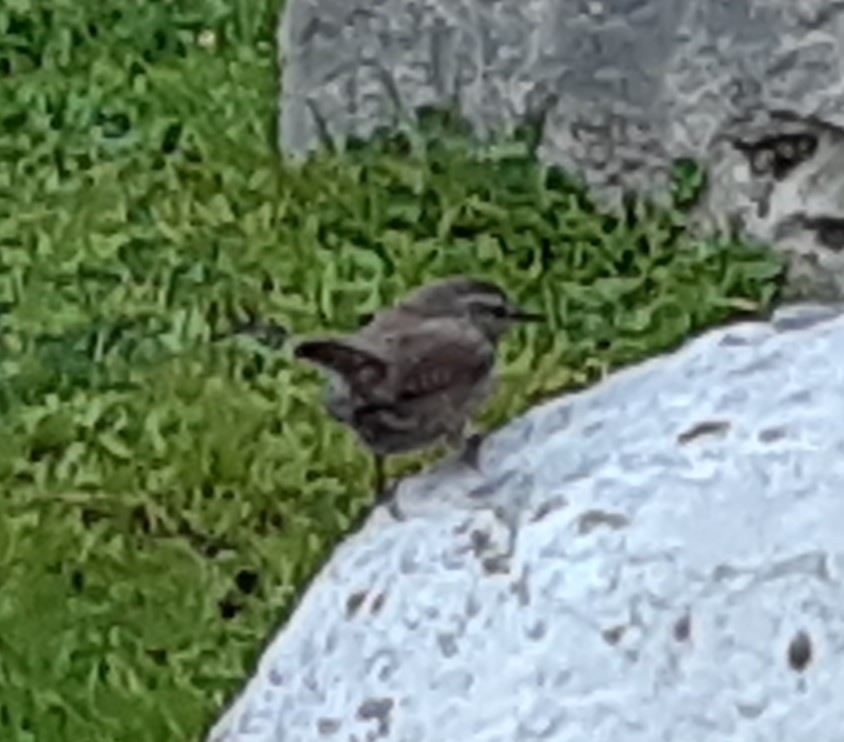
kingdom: Animalia
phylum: Chordata
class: Aves
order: Passeriformes
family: Troglodytidae
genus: Troglodytes
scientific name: Troglodytes troglodytes
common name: Eurasian wren
